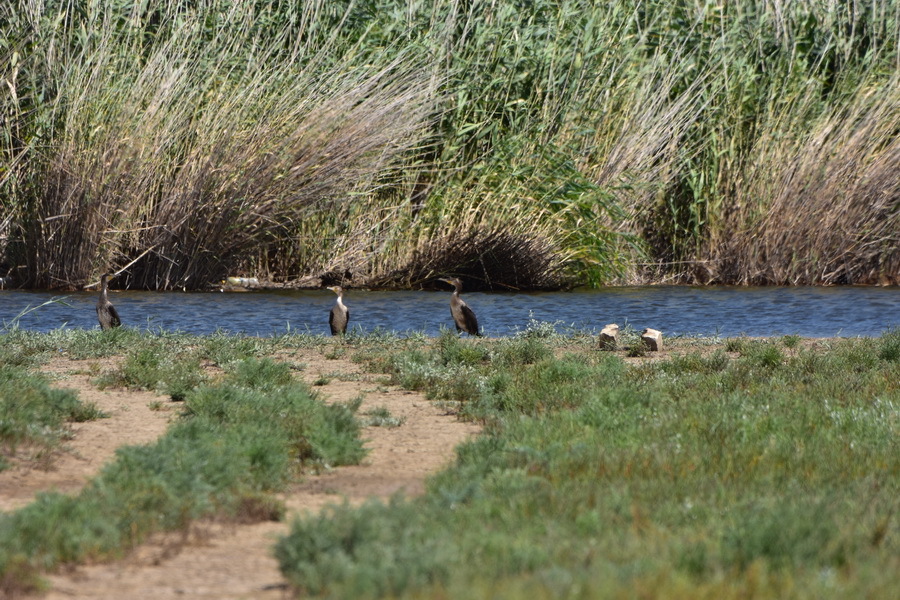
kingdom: Animalia
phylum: Chordata
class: Aves
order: Suliformes
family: Phalacrocoracidae
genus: Phalacrocorax
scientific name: Phalacrocorax carbo
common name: Great cormorant
